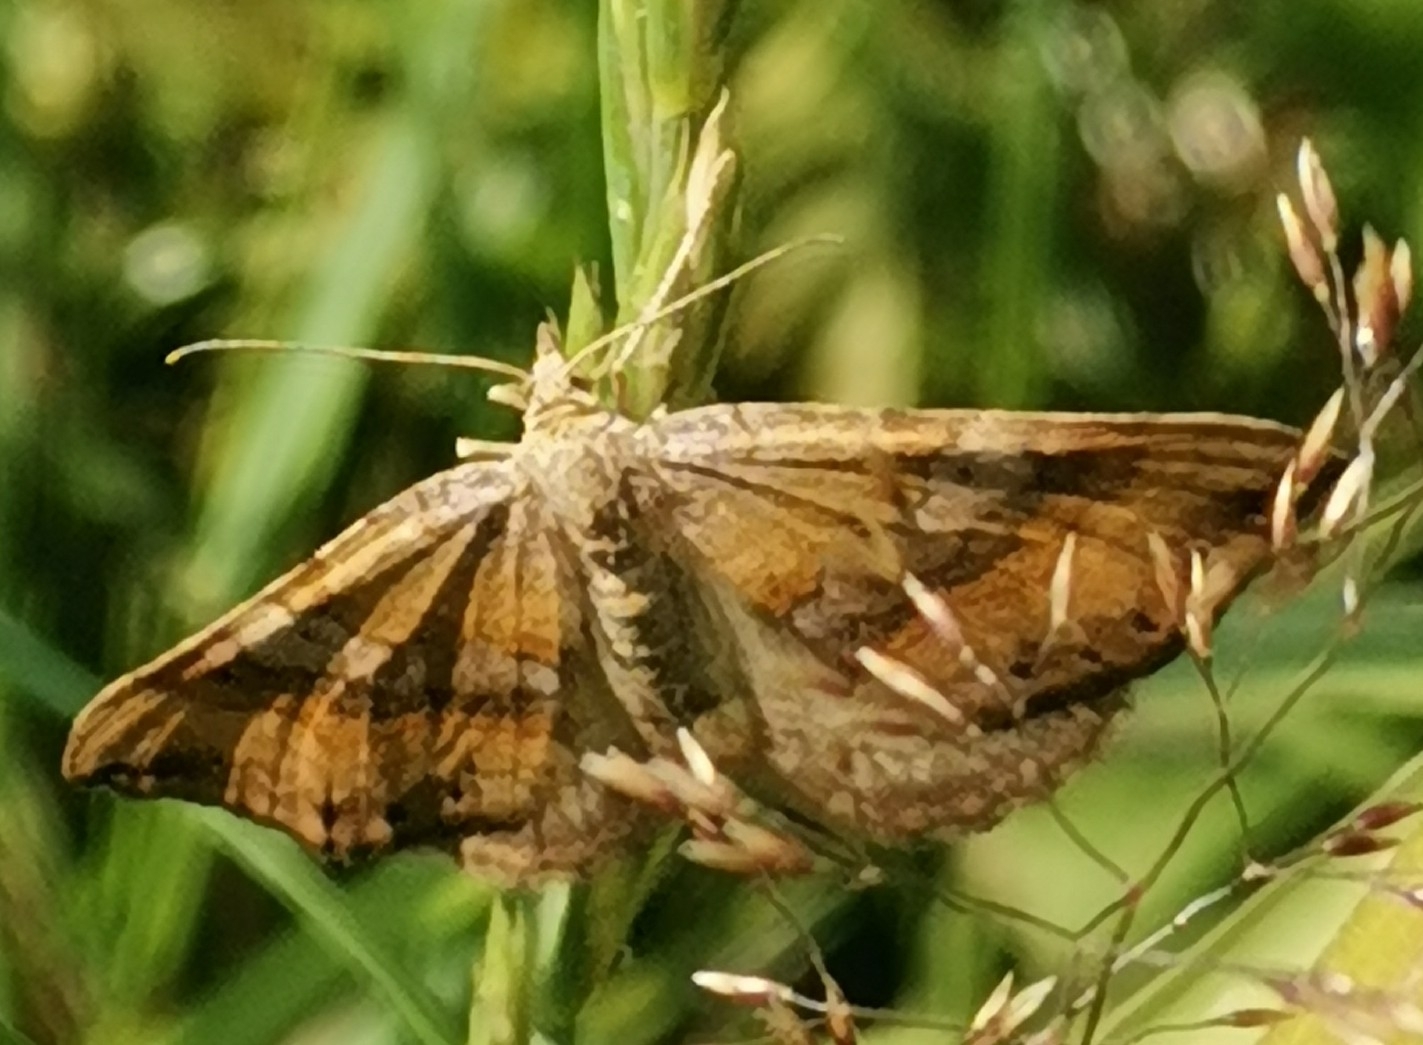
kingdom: Animalia
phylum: Arthropoda
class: Insecta
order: Lepidoptera
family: Geometridae
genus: Scotopteryx
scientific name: Scotopteryx chenopodiata
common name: Shaded broad-bar
